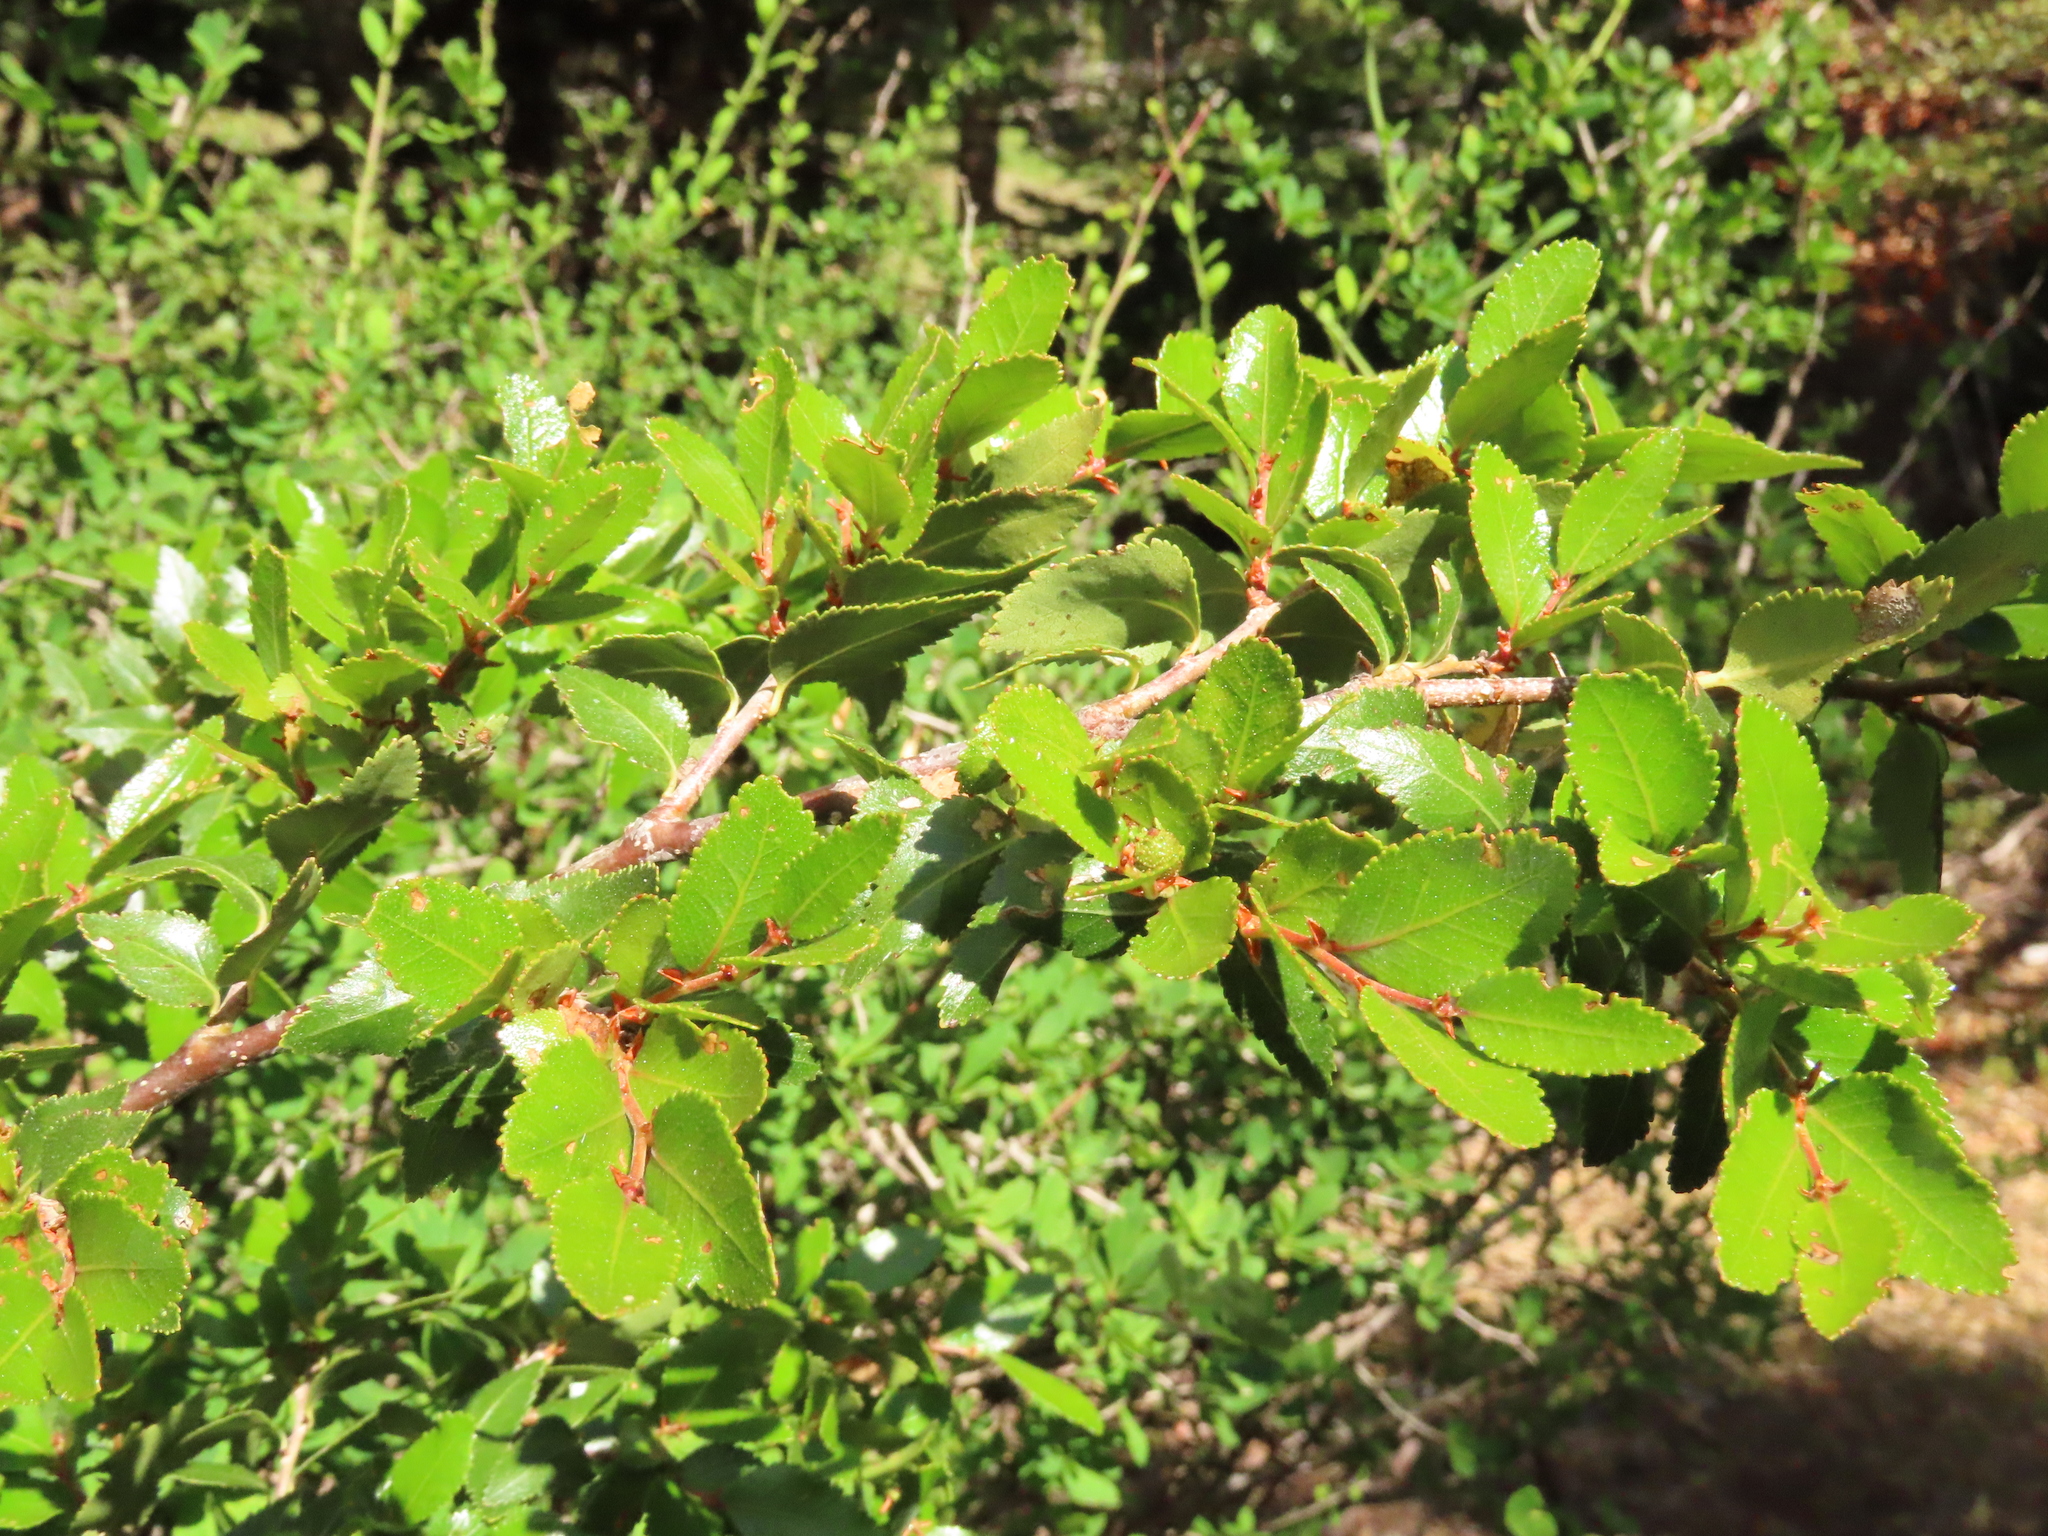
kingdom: Plantae
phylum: Tracheophyta
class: Magnoliopsida
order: Fagales
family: Nothofagaceae
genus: Nothofagus
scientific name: Nothofagus dombeyi
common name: Coigue
